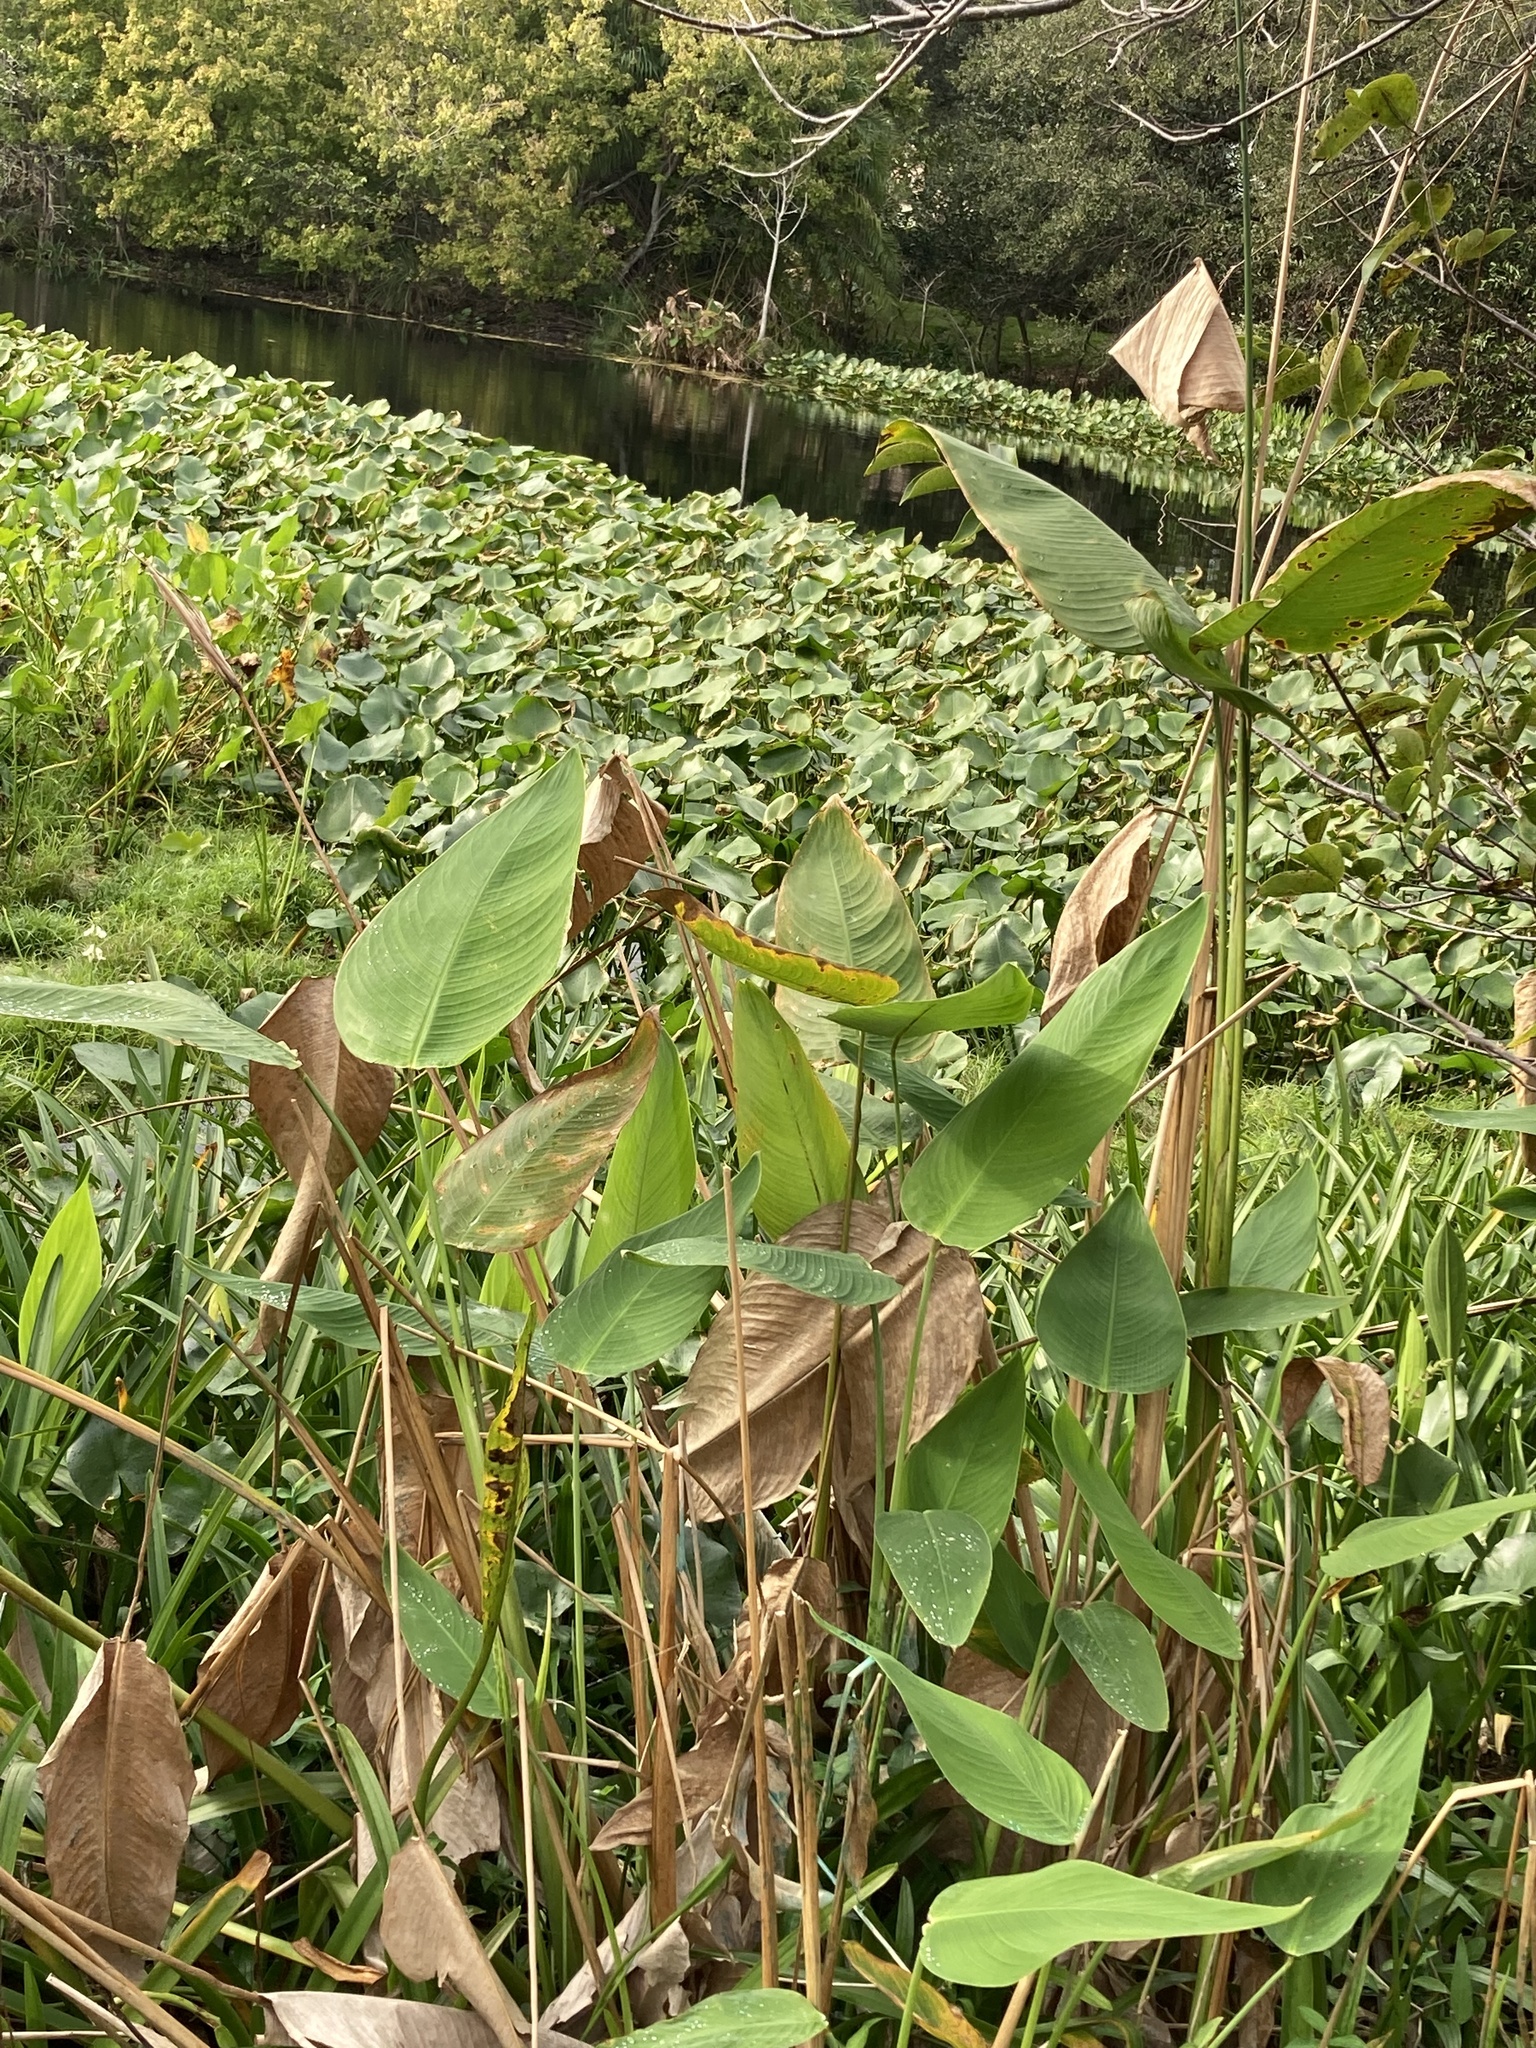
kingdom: Plantae
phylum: Tracheophyta
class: Liliopsida
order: Zingiberales
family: Marantaceae
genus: Thalia
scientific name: Thalia geniculata
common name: Arrowroot
